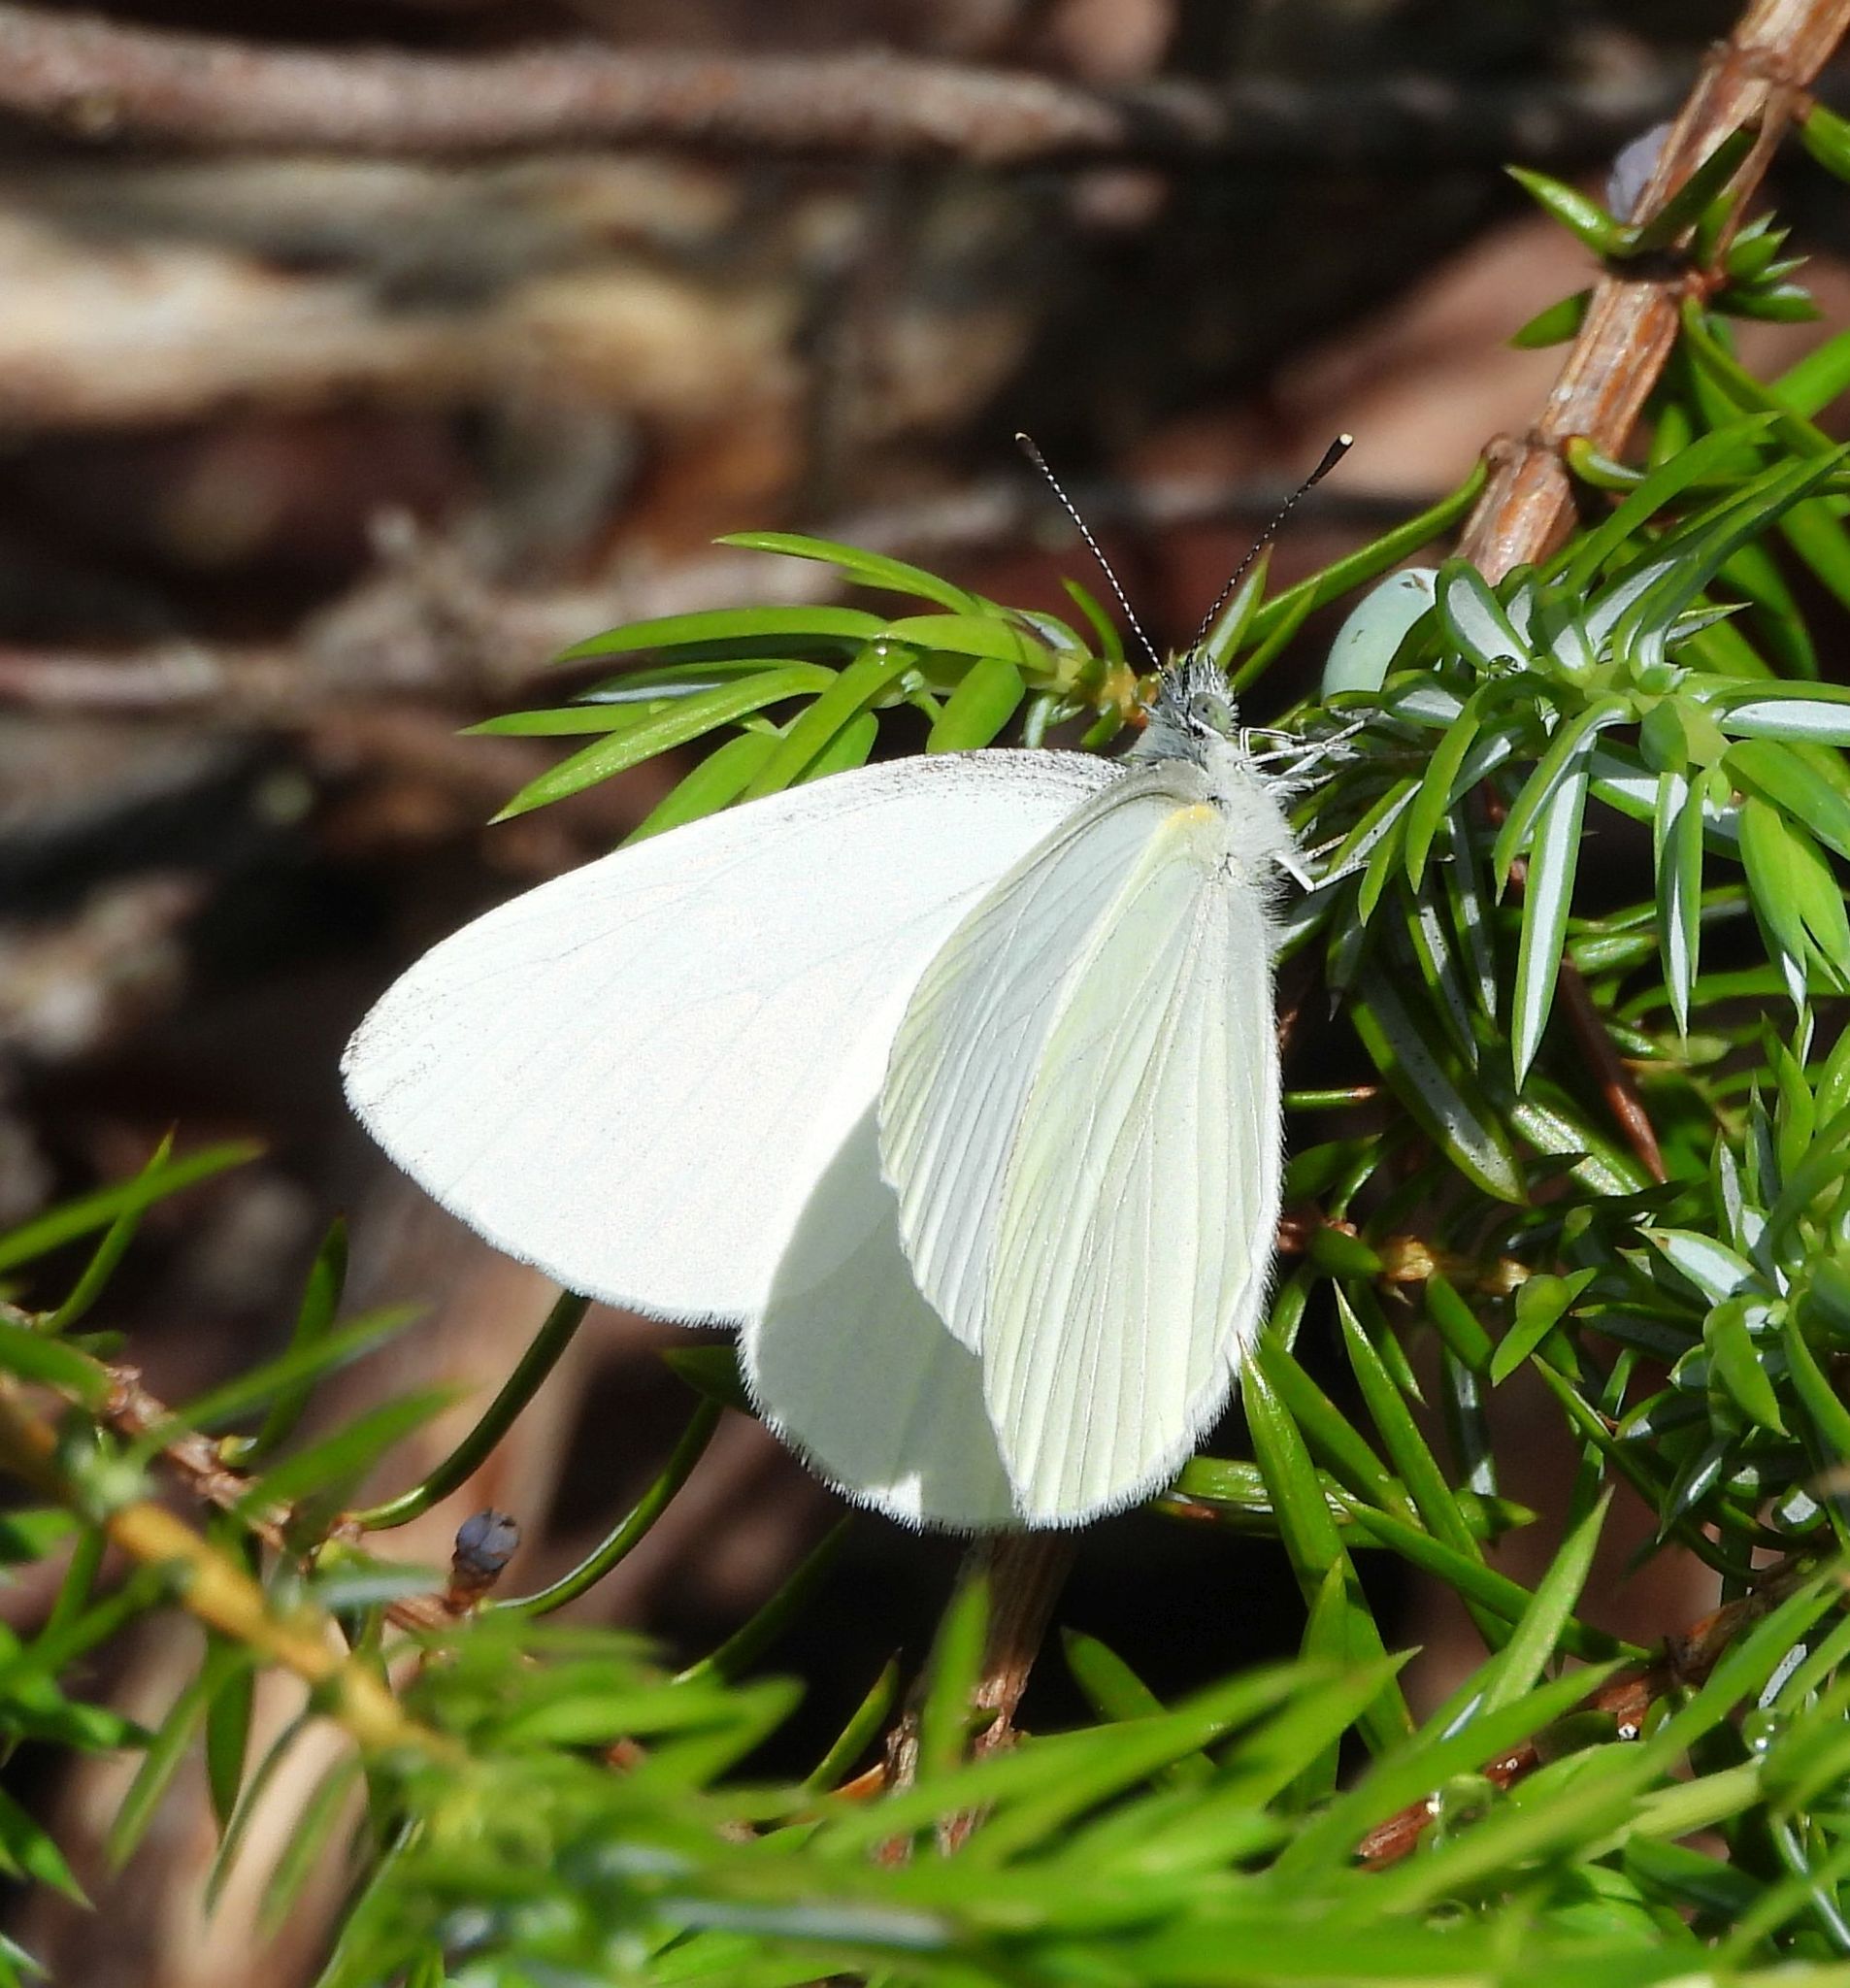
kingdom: Animalia
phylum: Arthropoda
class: Insecta
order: Lepidoptera
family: Pieridae
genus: Pieris
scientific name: Pieris oleracea
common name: Mustard white
